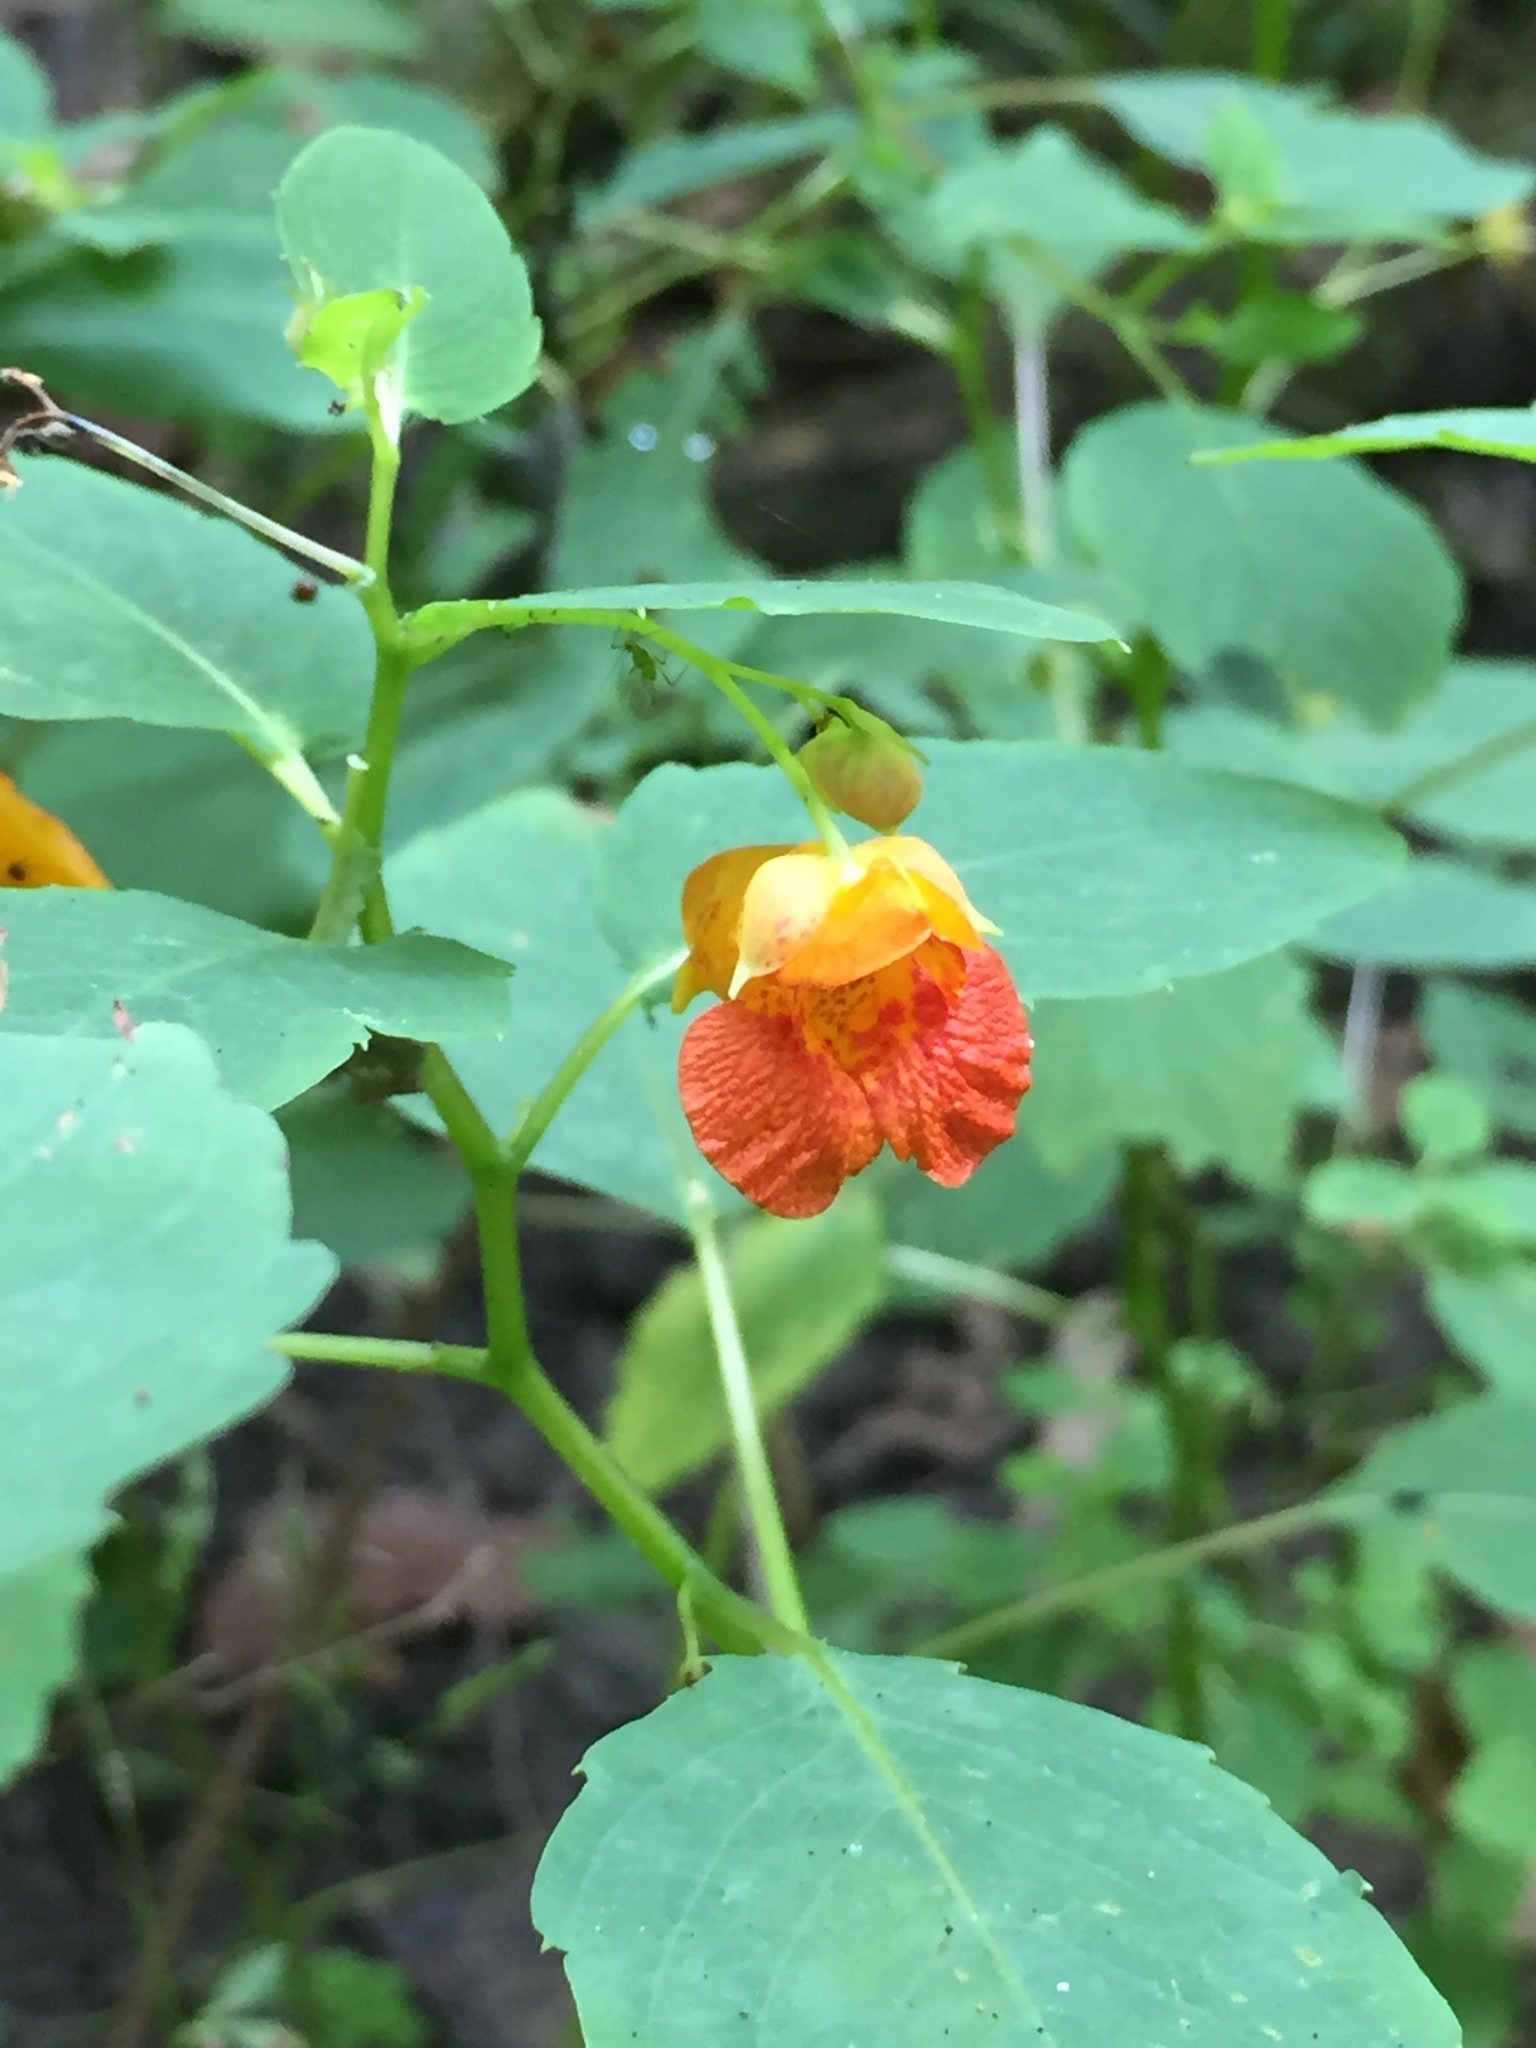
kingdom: Plantae
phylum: Tracheophyta
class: Magnoliopsida
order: Ericales
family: Balsaminaceae
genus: Impatiens
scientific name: Impatiens capensis
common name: Orange balsam
